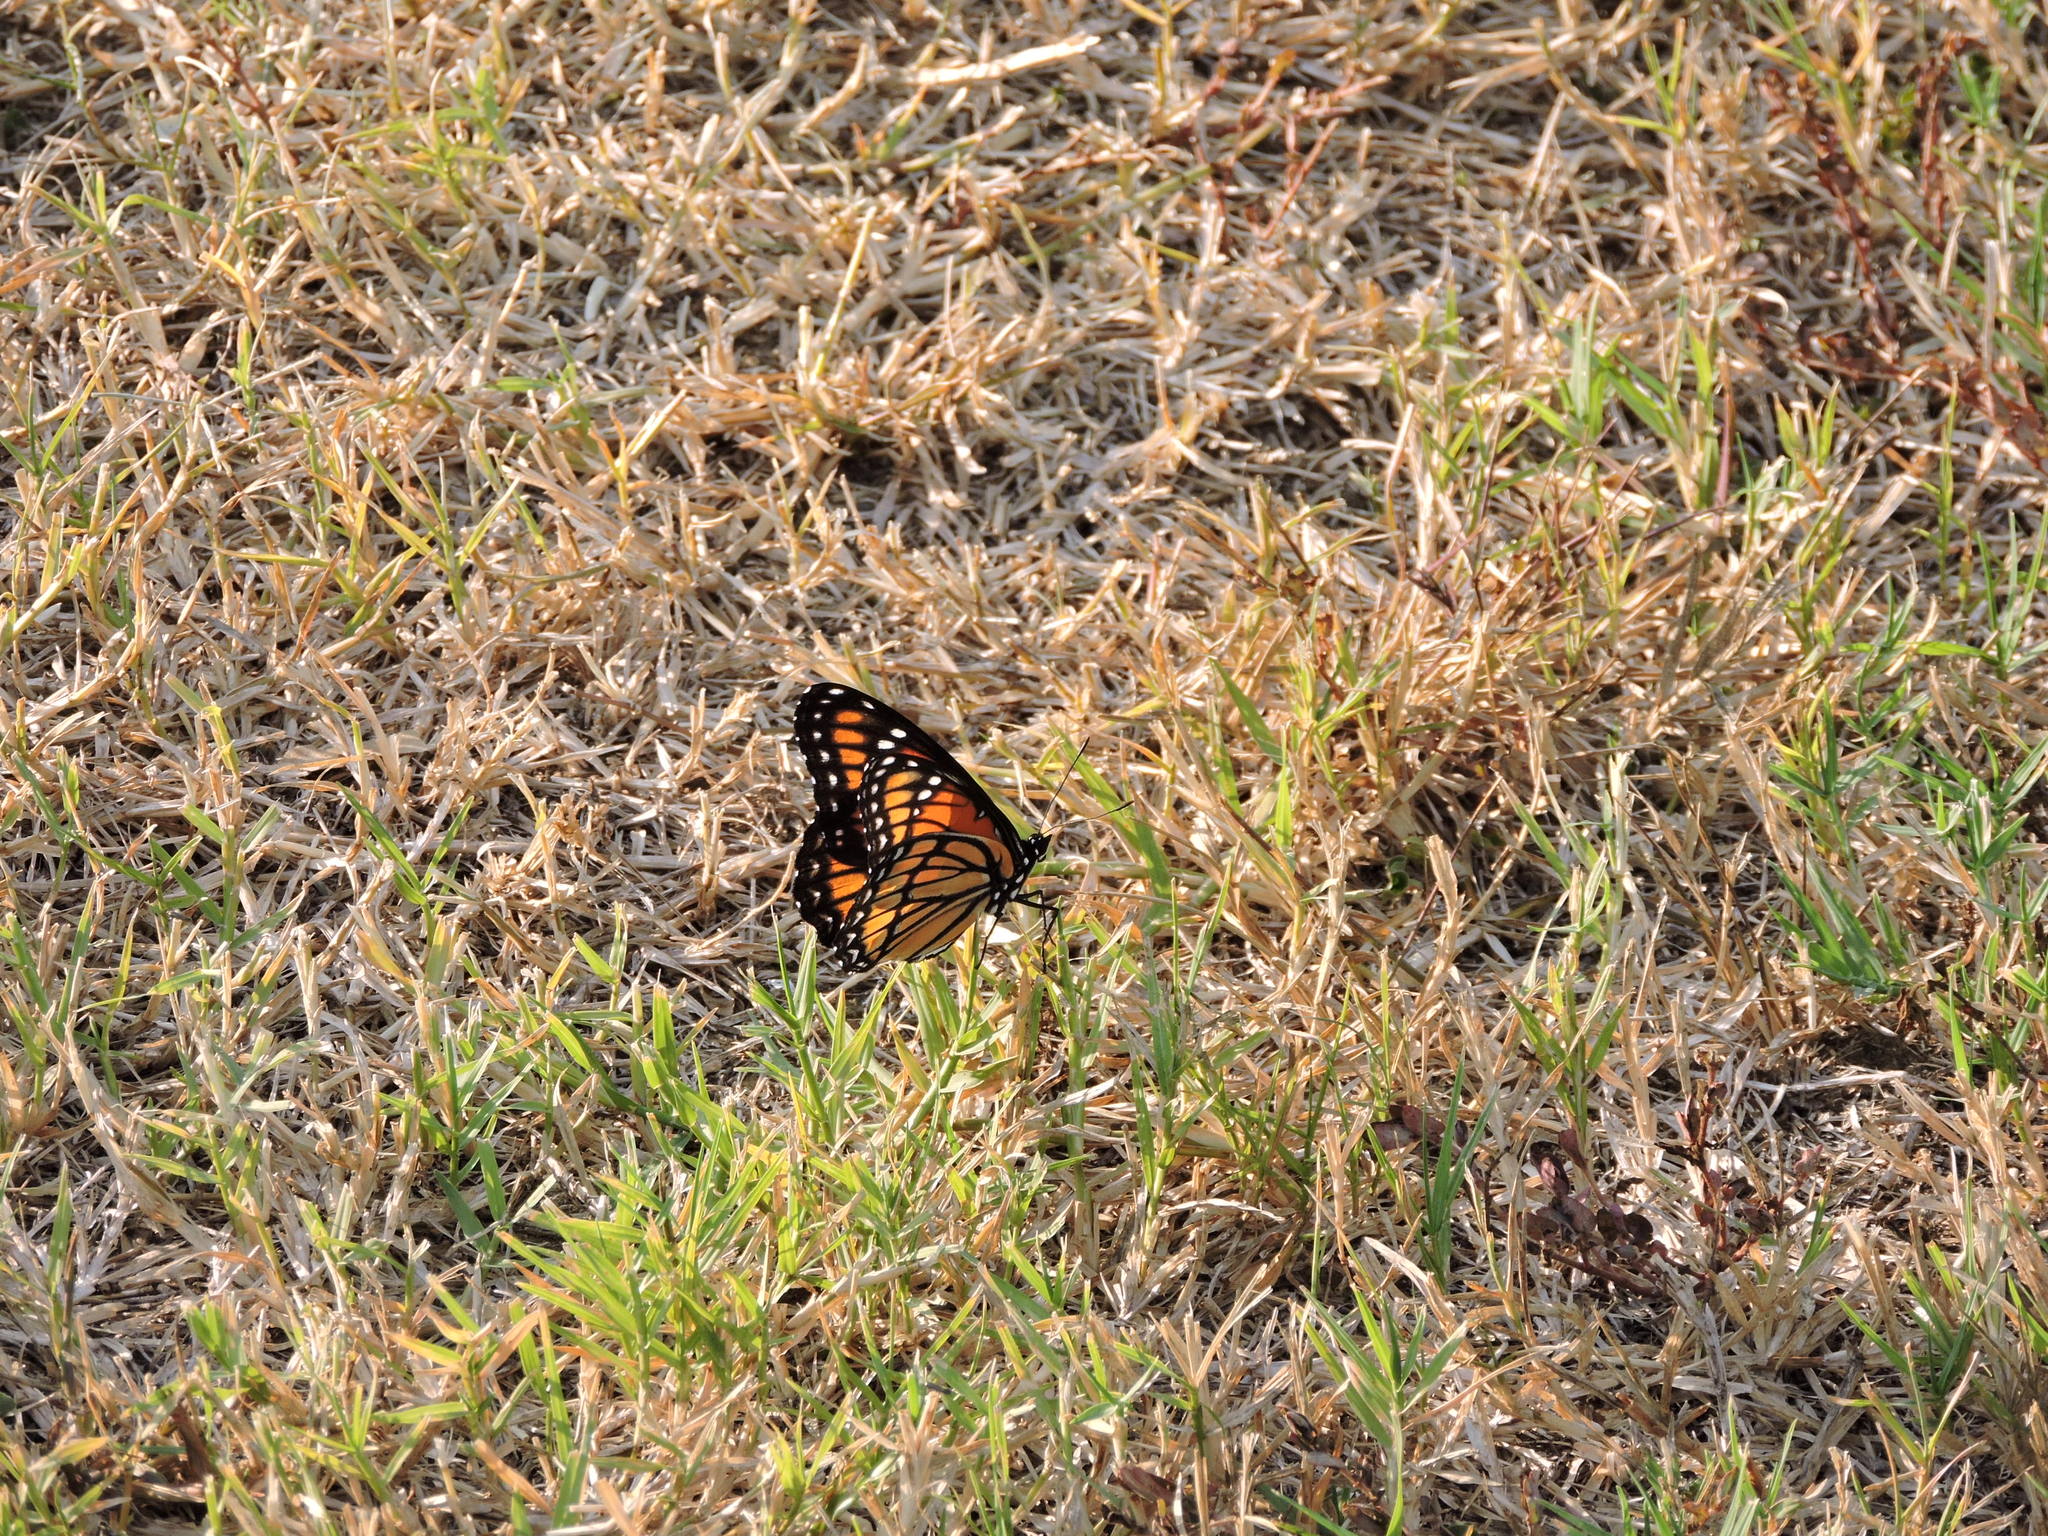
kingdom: Animalia
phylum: Arthropoda
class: Insecta
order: Lepidoptera
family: Nymphalidae
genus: Limenitis
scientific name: Limenitis archippus
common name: Viceroy
